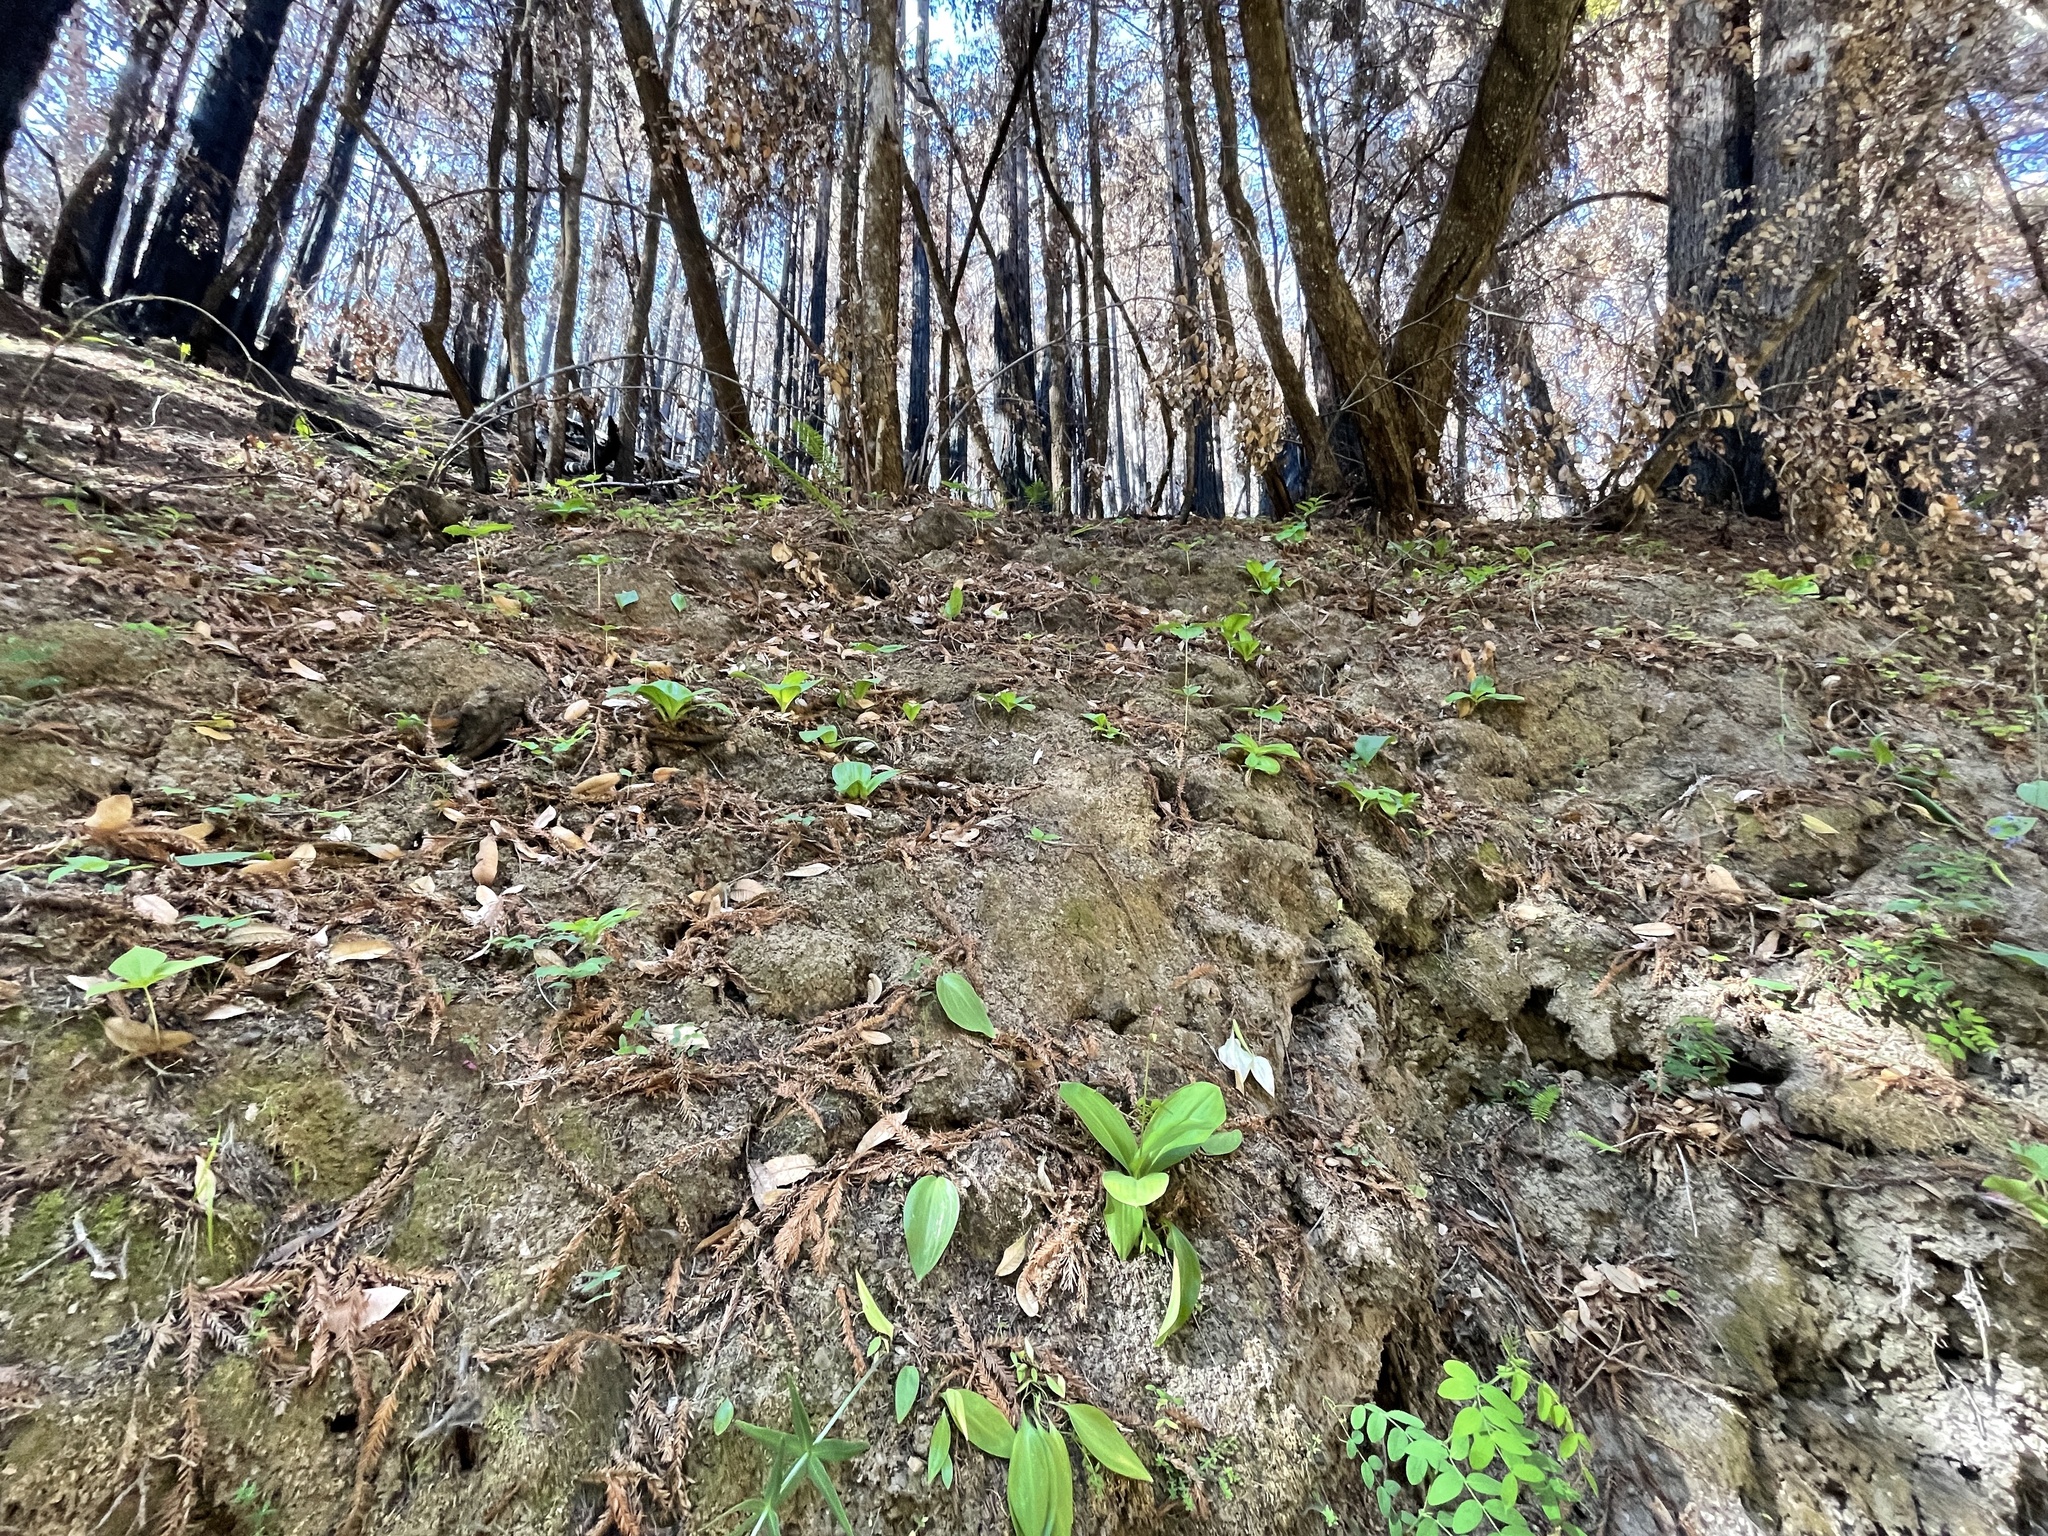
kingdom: Plantae
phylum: Tracheophyta
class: Liliopsida
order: Liliales
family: Liliaceae
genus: Clintonia
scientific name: Clintonia andrewsiana
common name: Red clintonia
